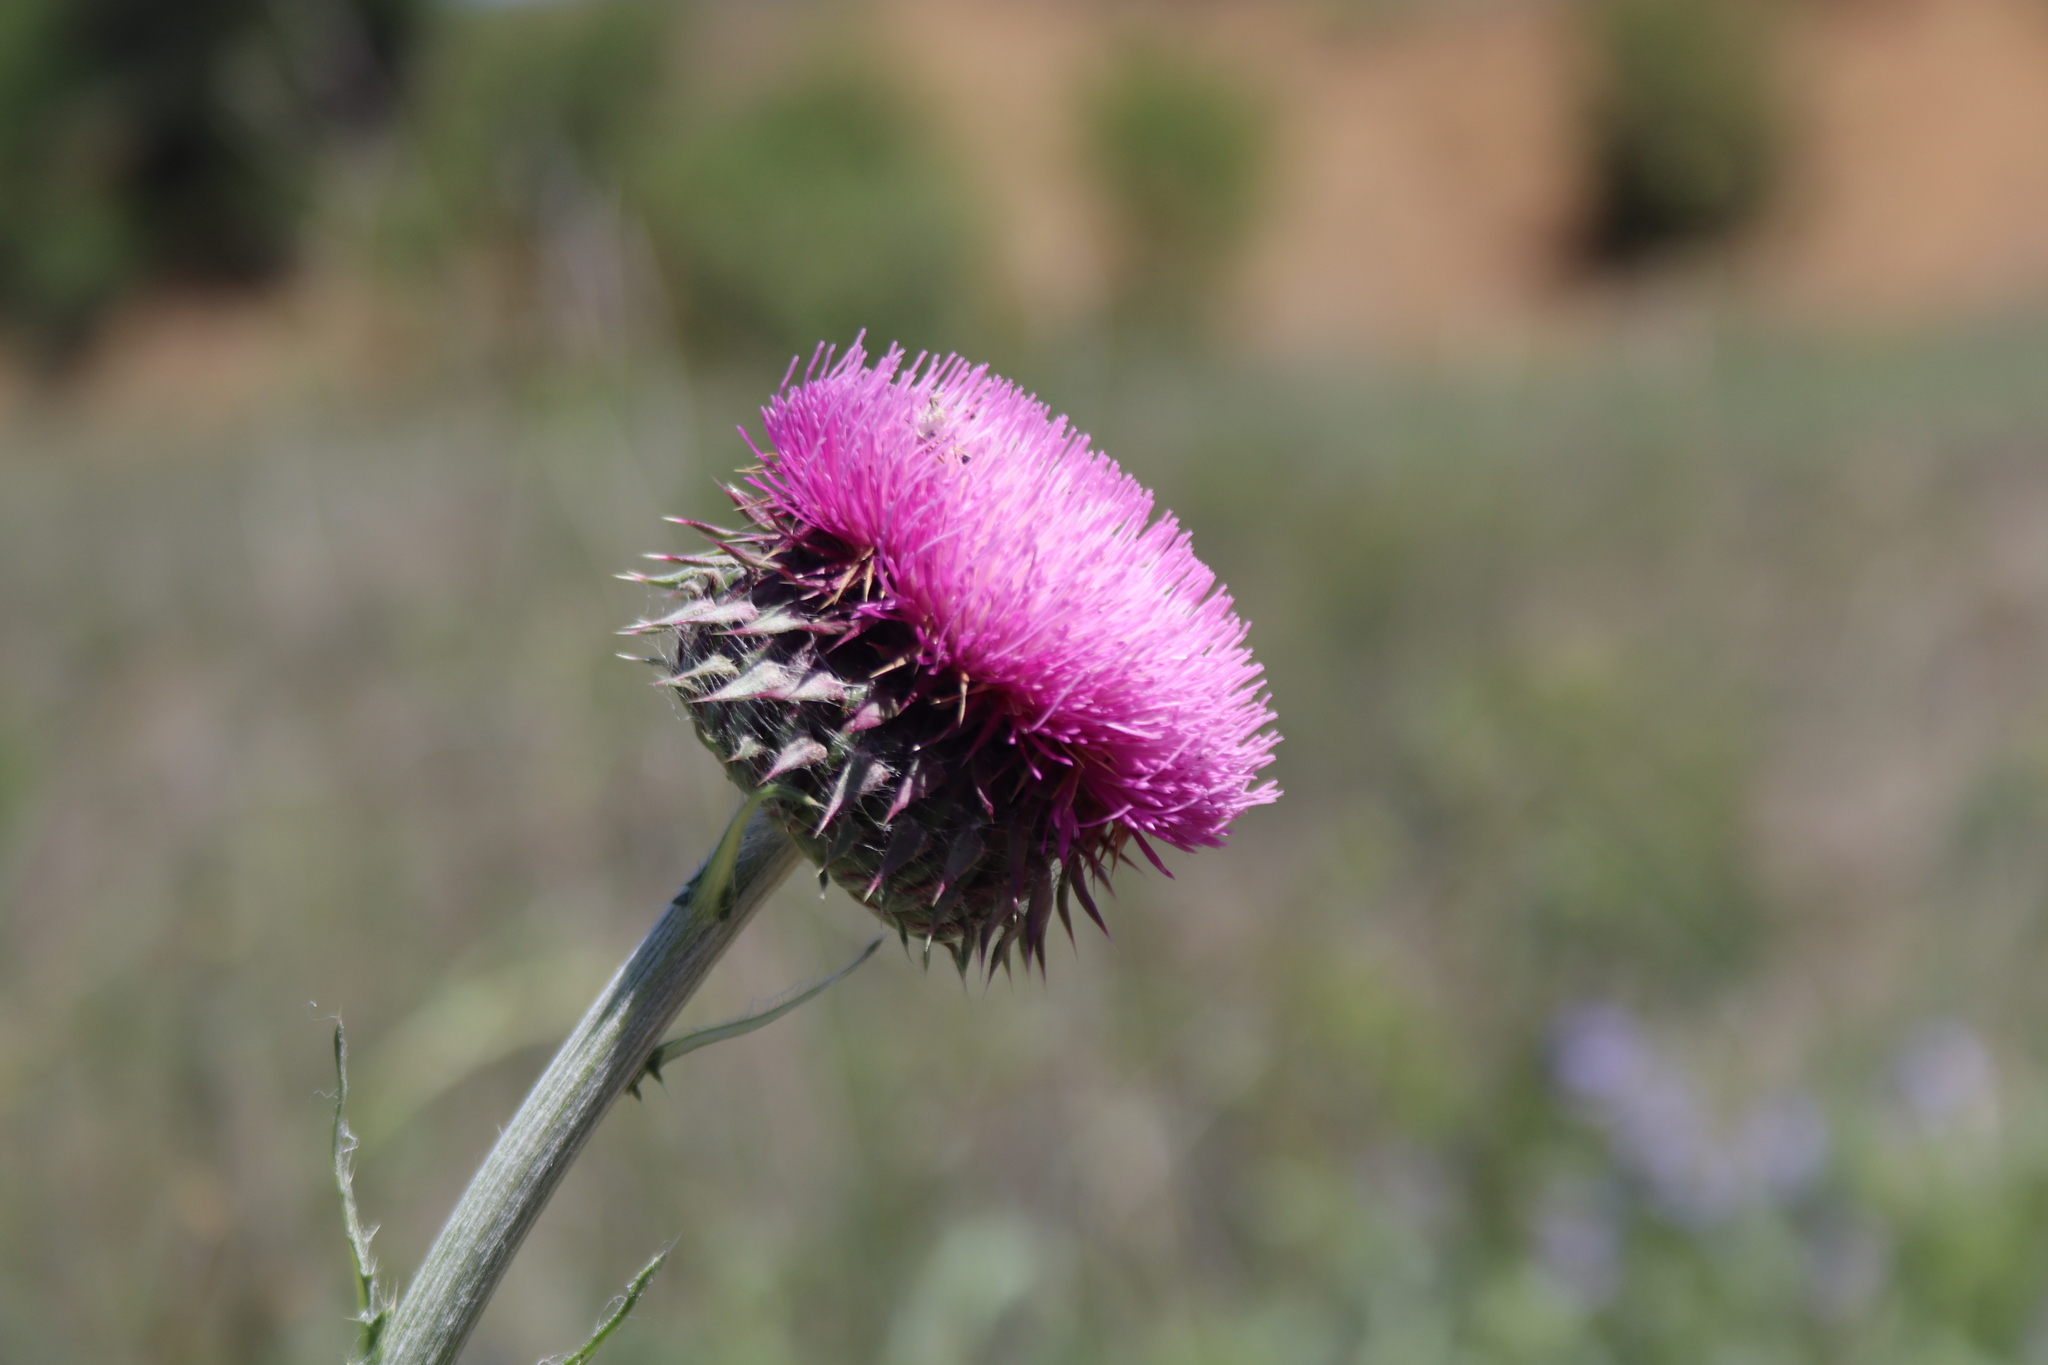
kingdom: Plantae
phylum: Tracheophyta
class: Magnoliopsida
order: Asterales
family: Asteraceae
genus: Carduus
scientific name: Carduus nutans
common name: Musk thistle
